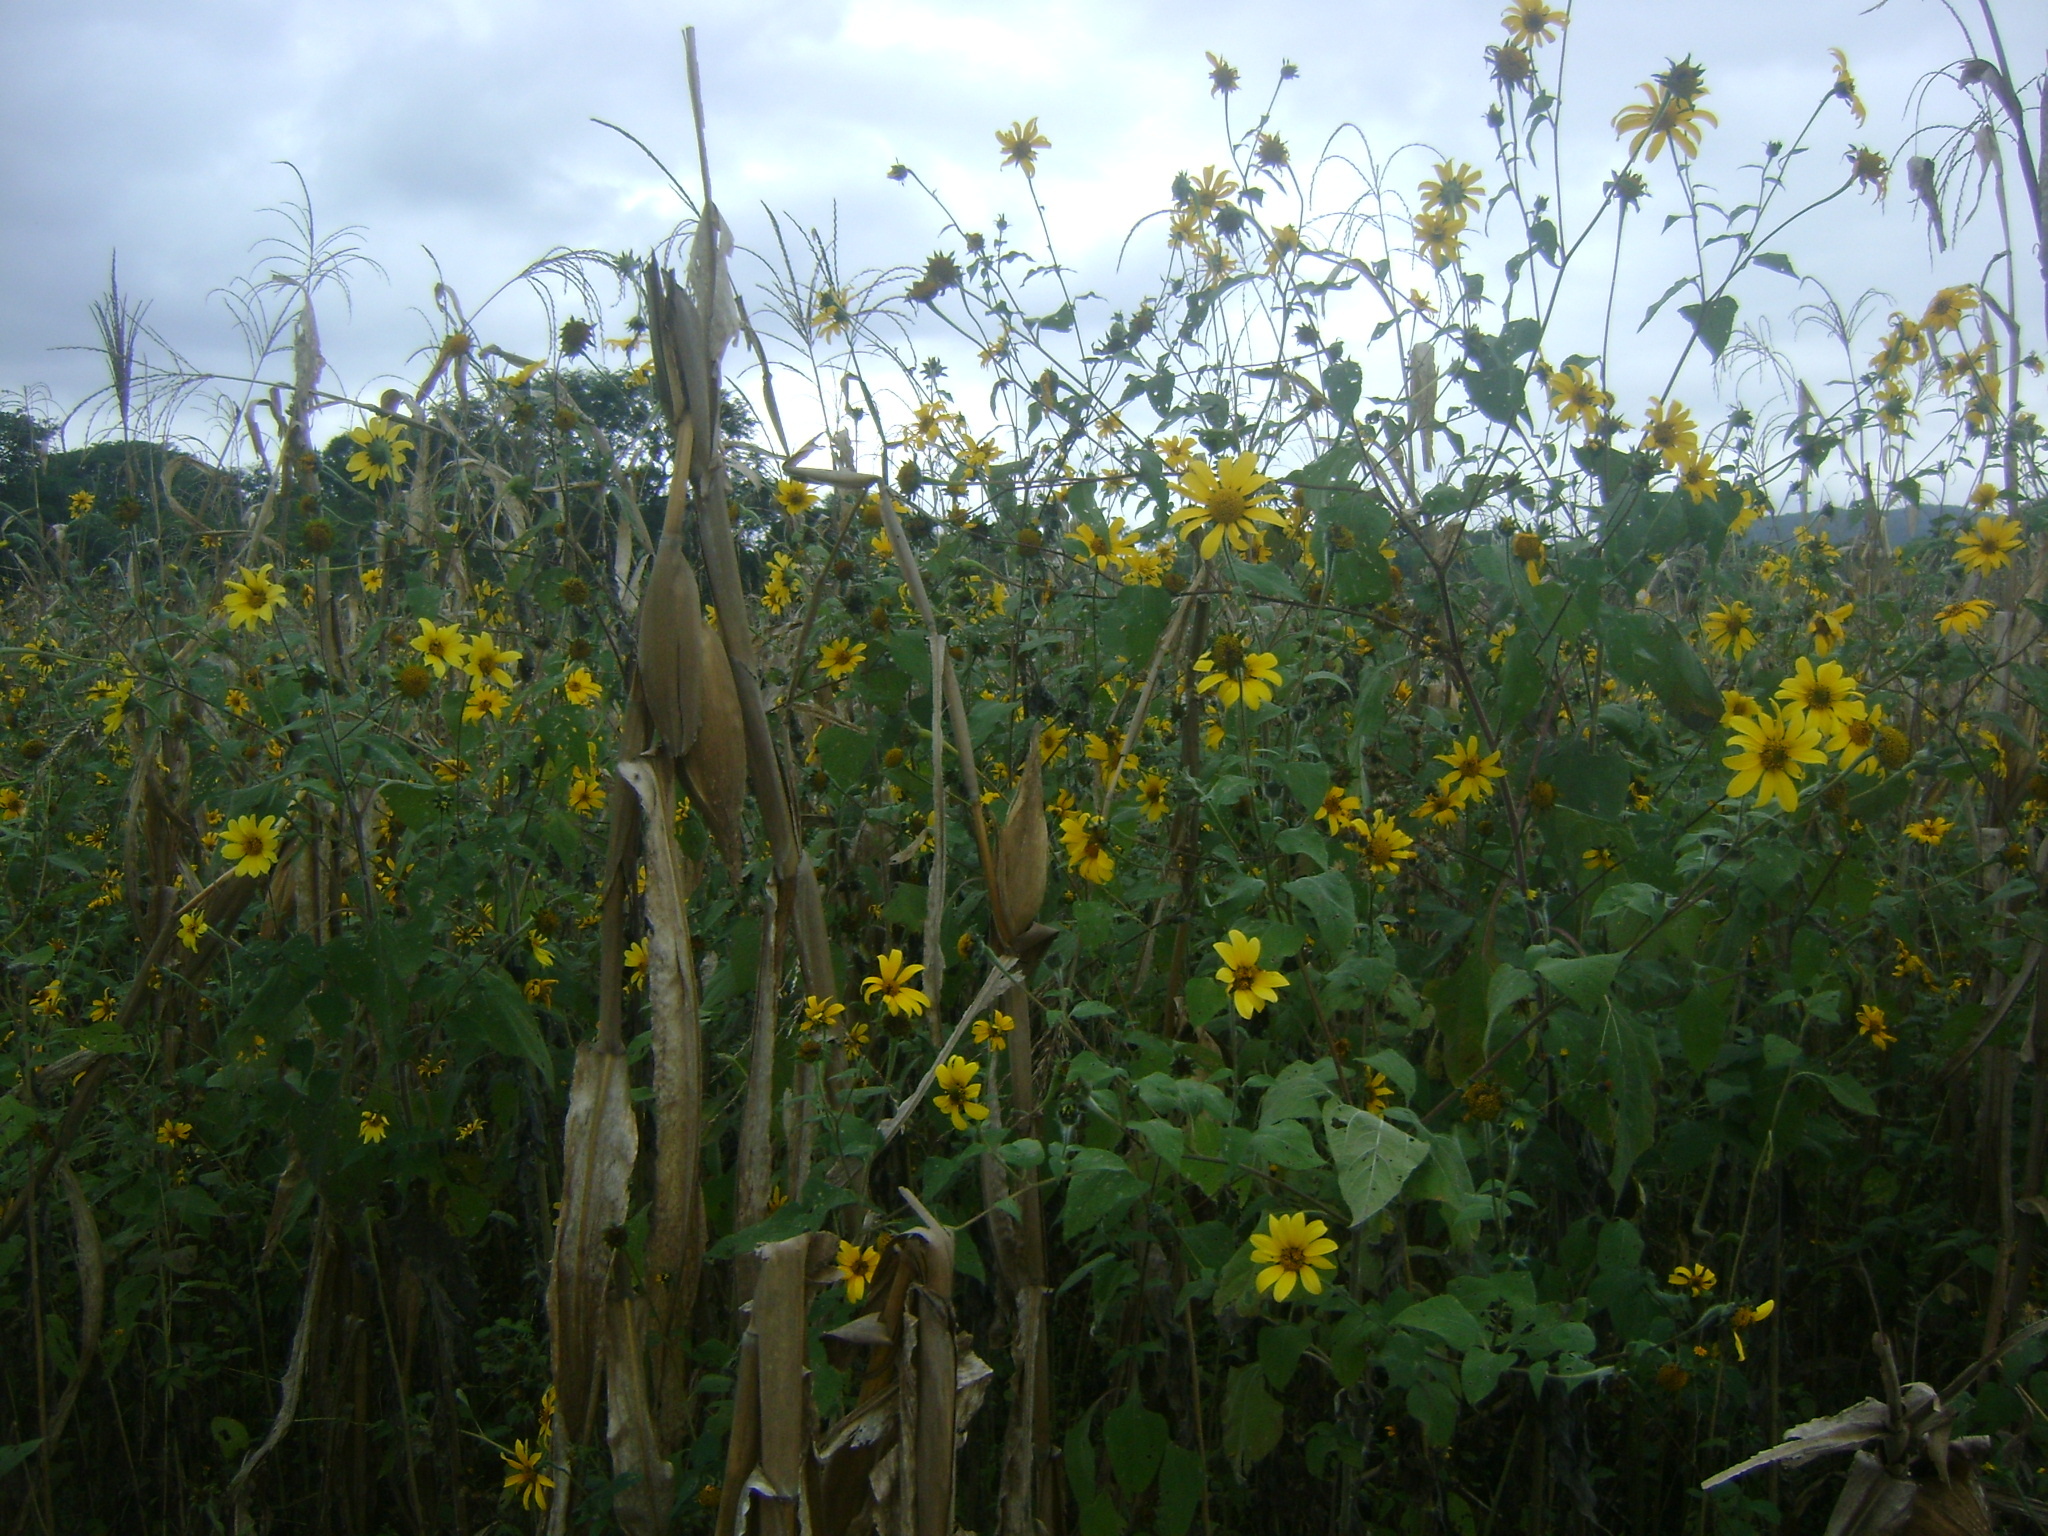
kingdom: Plantae
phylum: Tracheophyta
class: Magnoliopsida
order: Asterales
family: Asteraceae
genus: Tithonia
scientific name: Tithonia tubaeformis
